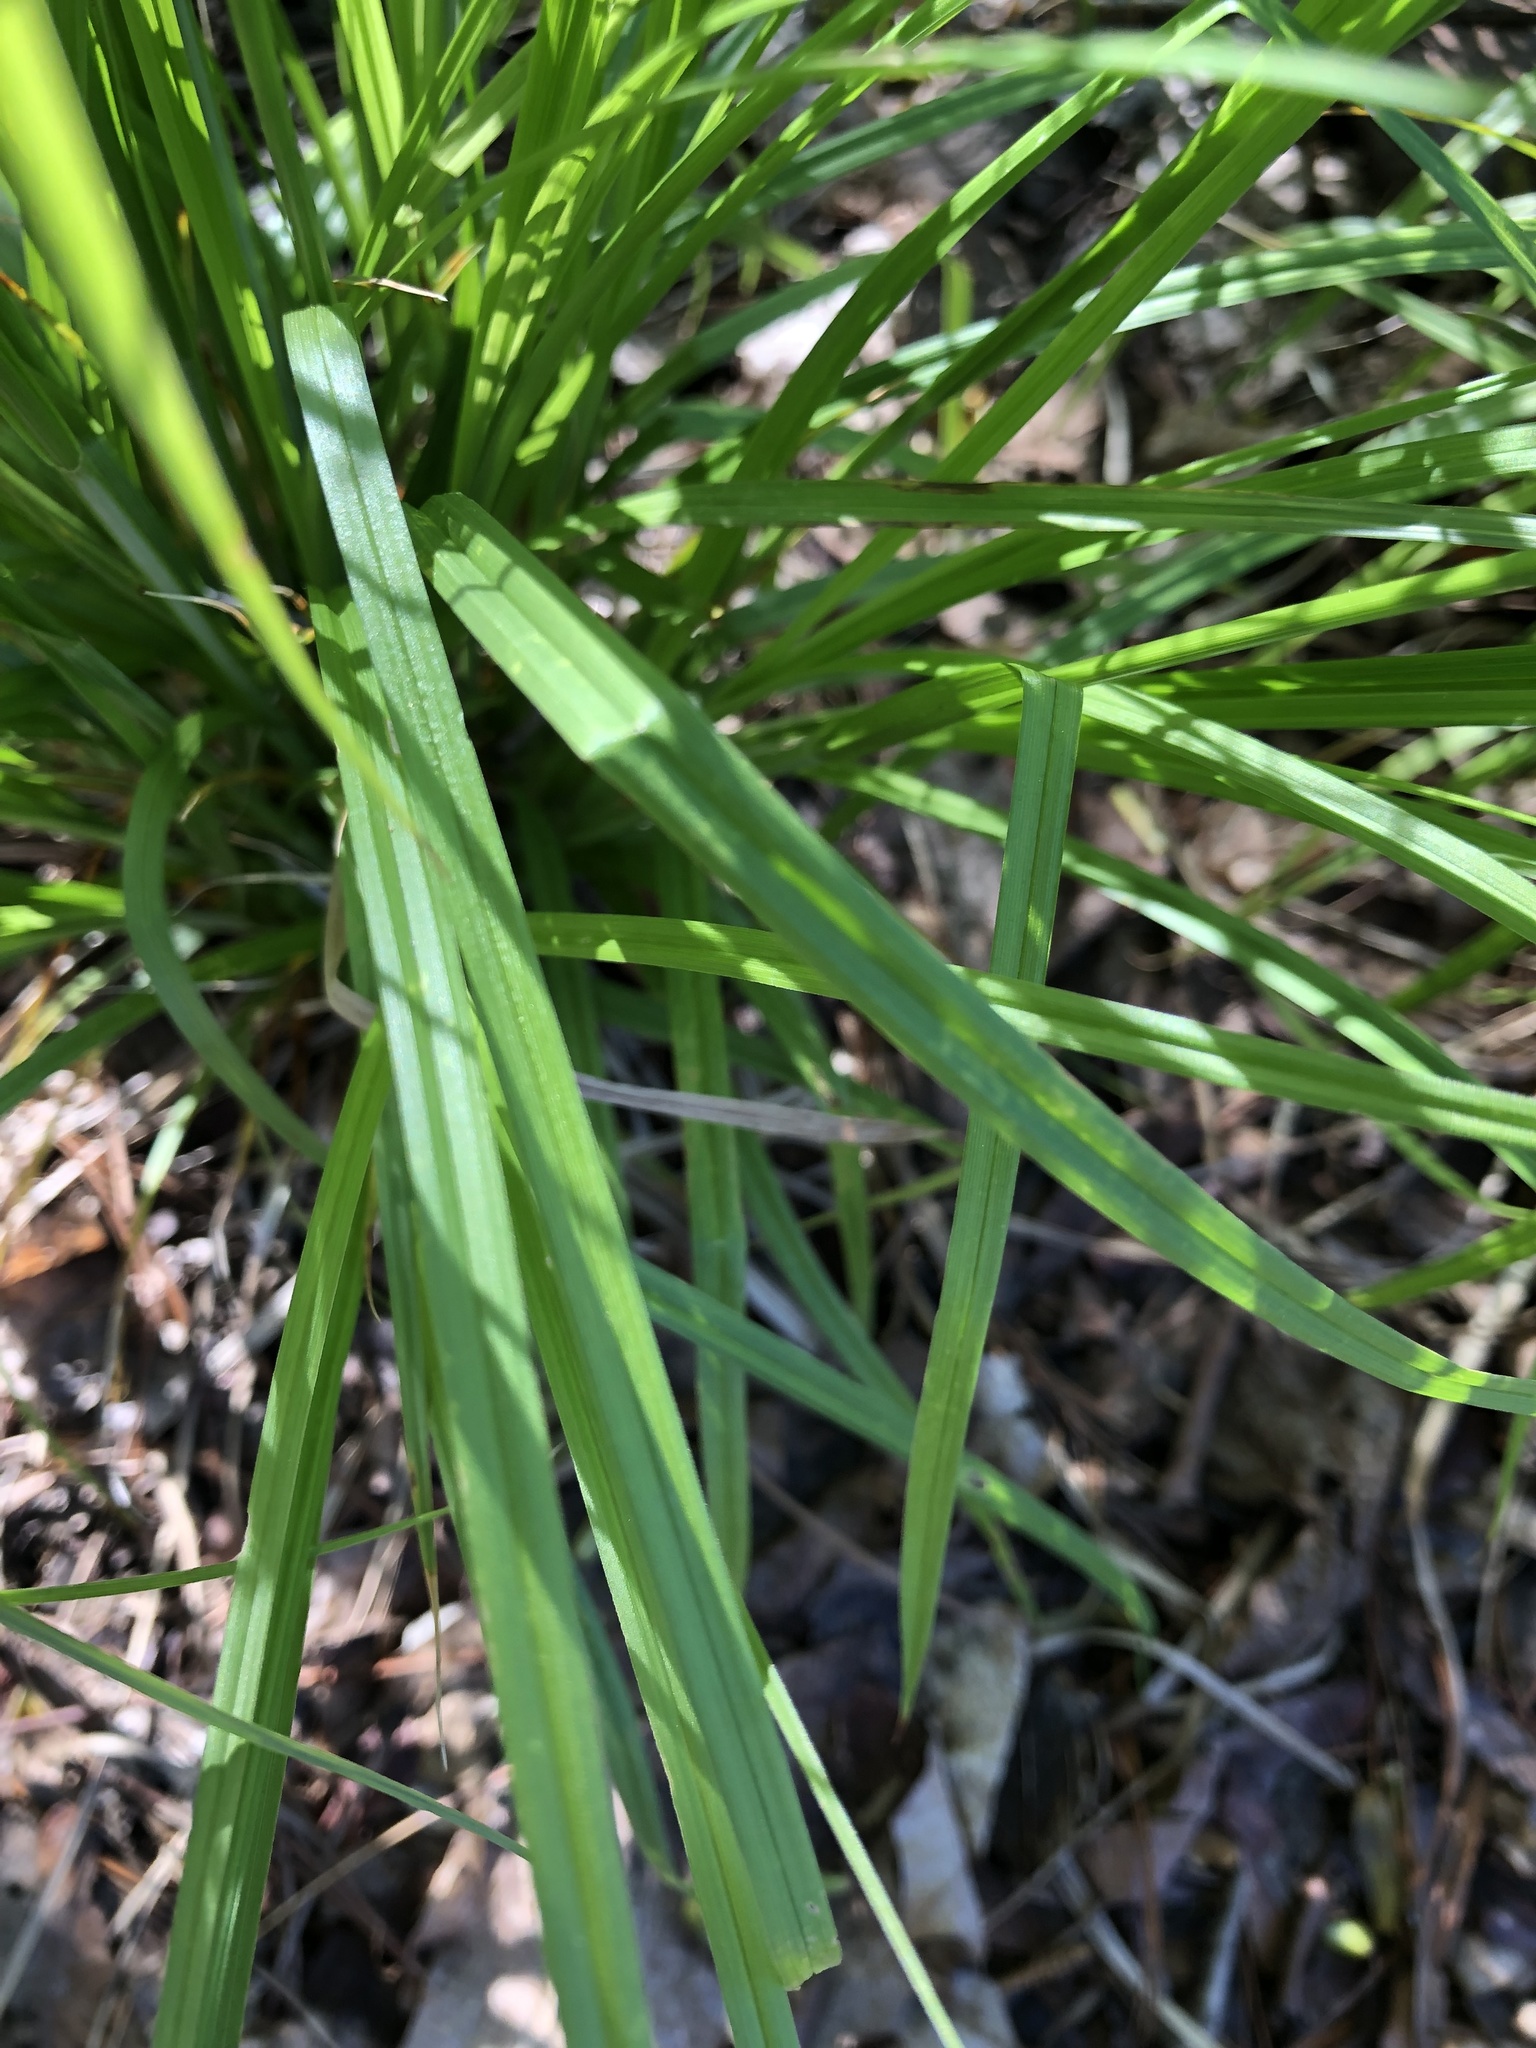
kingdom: Plantae
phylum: Tracheophyta
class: Liliopsida
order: Poales
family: Cyperaceae
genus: Carex
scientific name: Carex sprengelii
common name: Long-beaked sedge
